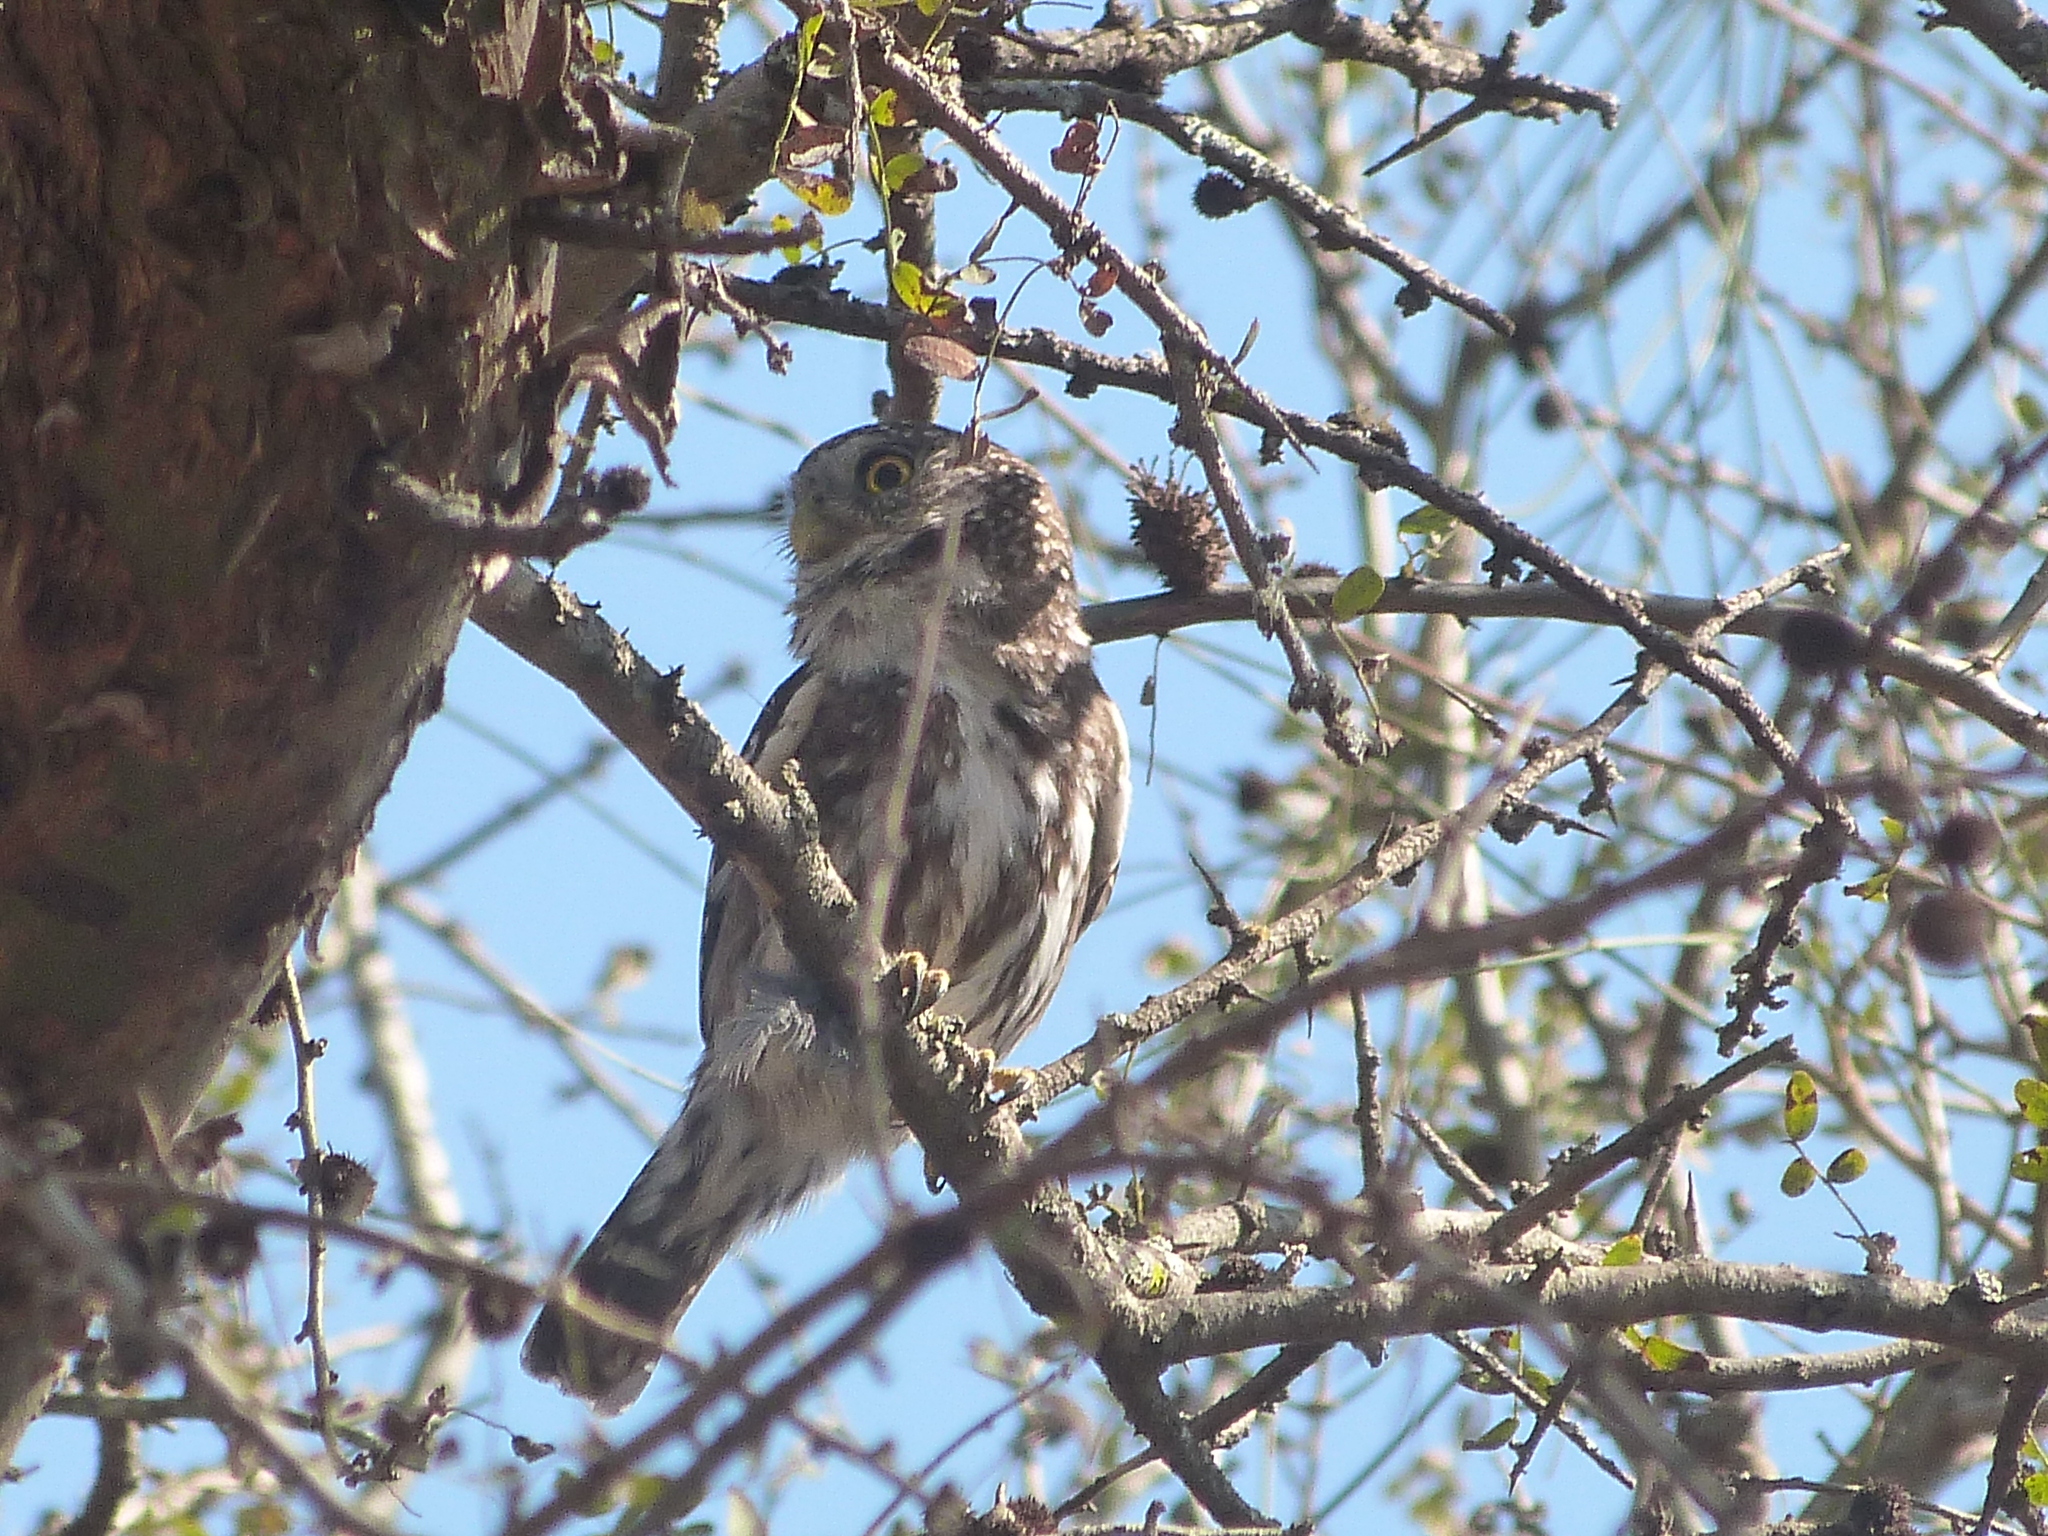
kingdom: Animalia
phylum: Chordata
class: Aves
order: Strigiformes
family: Strigidae
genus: Glaucidium
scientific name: Glaucidium brasilianum
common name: Ferruginous pygmy-owl
